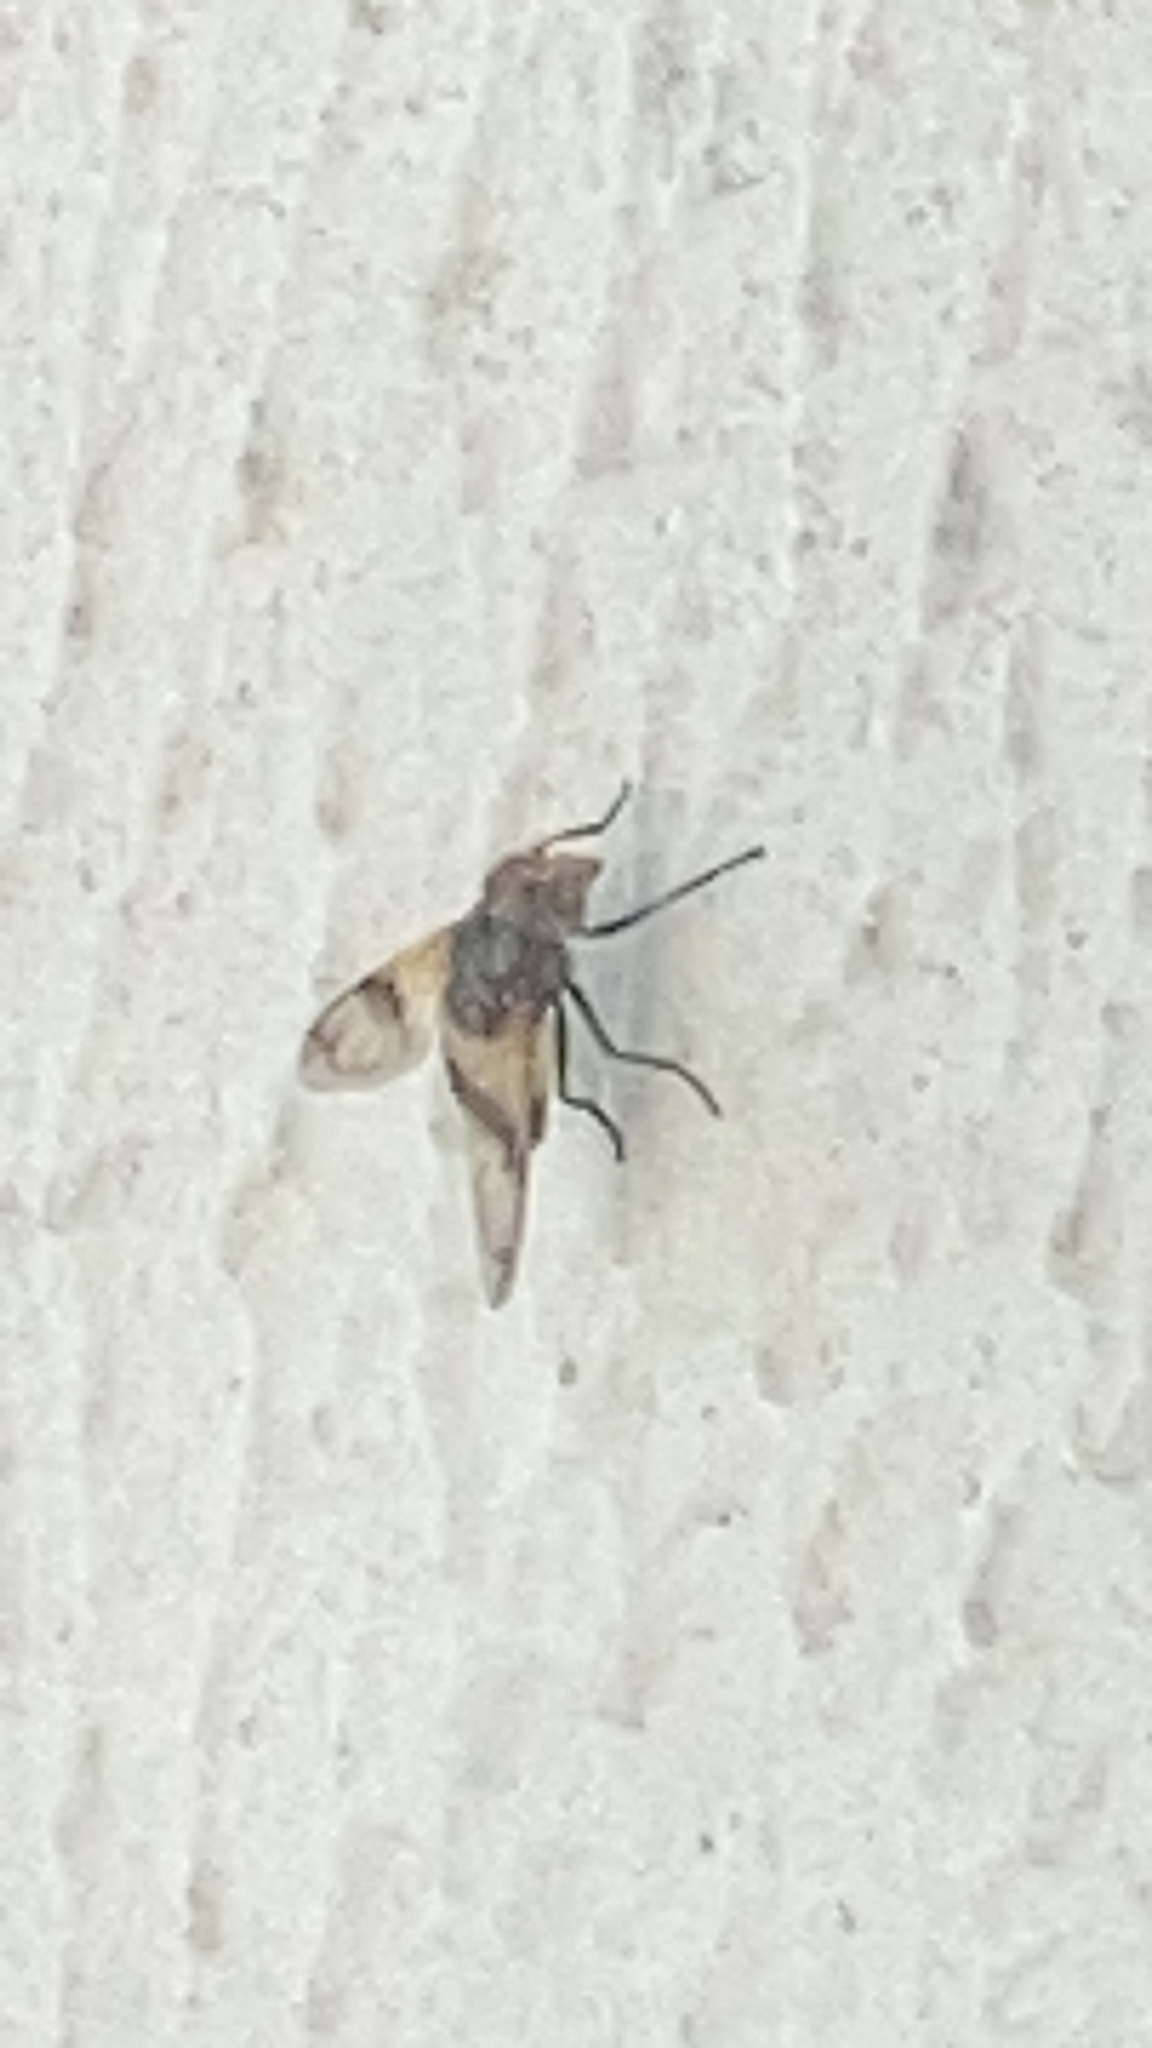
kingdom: Animalia
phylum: Arthropoda
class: Insecta
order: Diptera
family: Syrphidae
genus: Volucella
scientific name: Volucella pellucens
